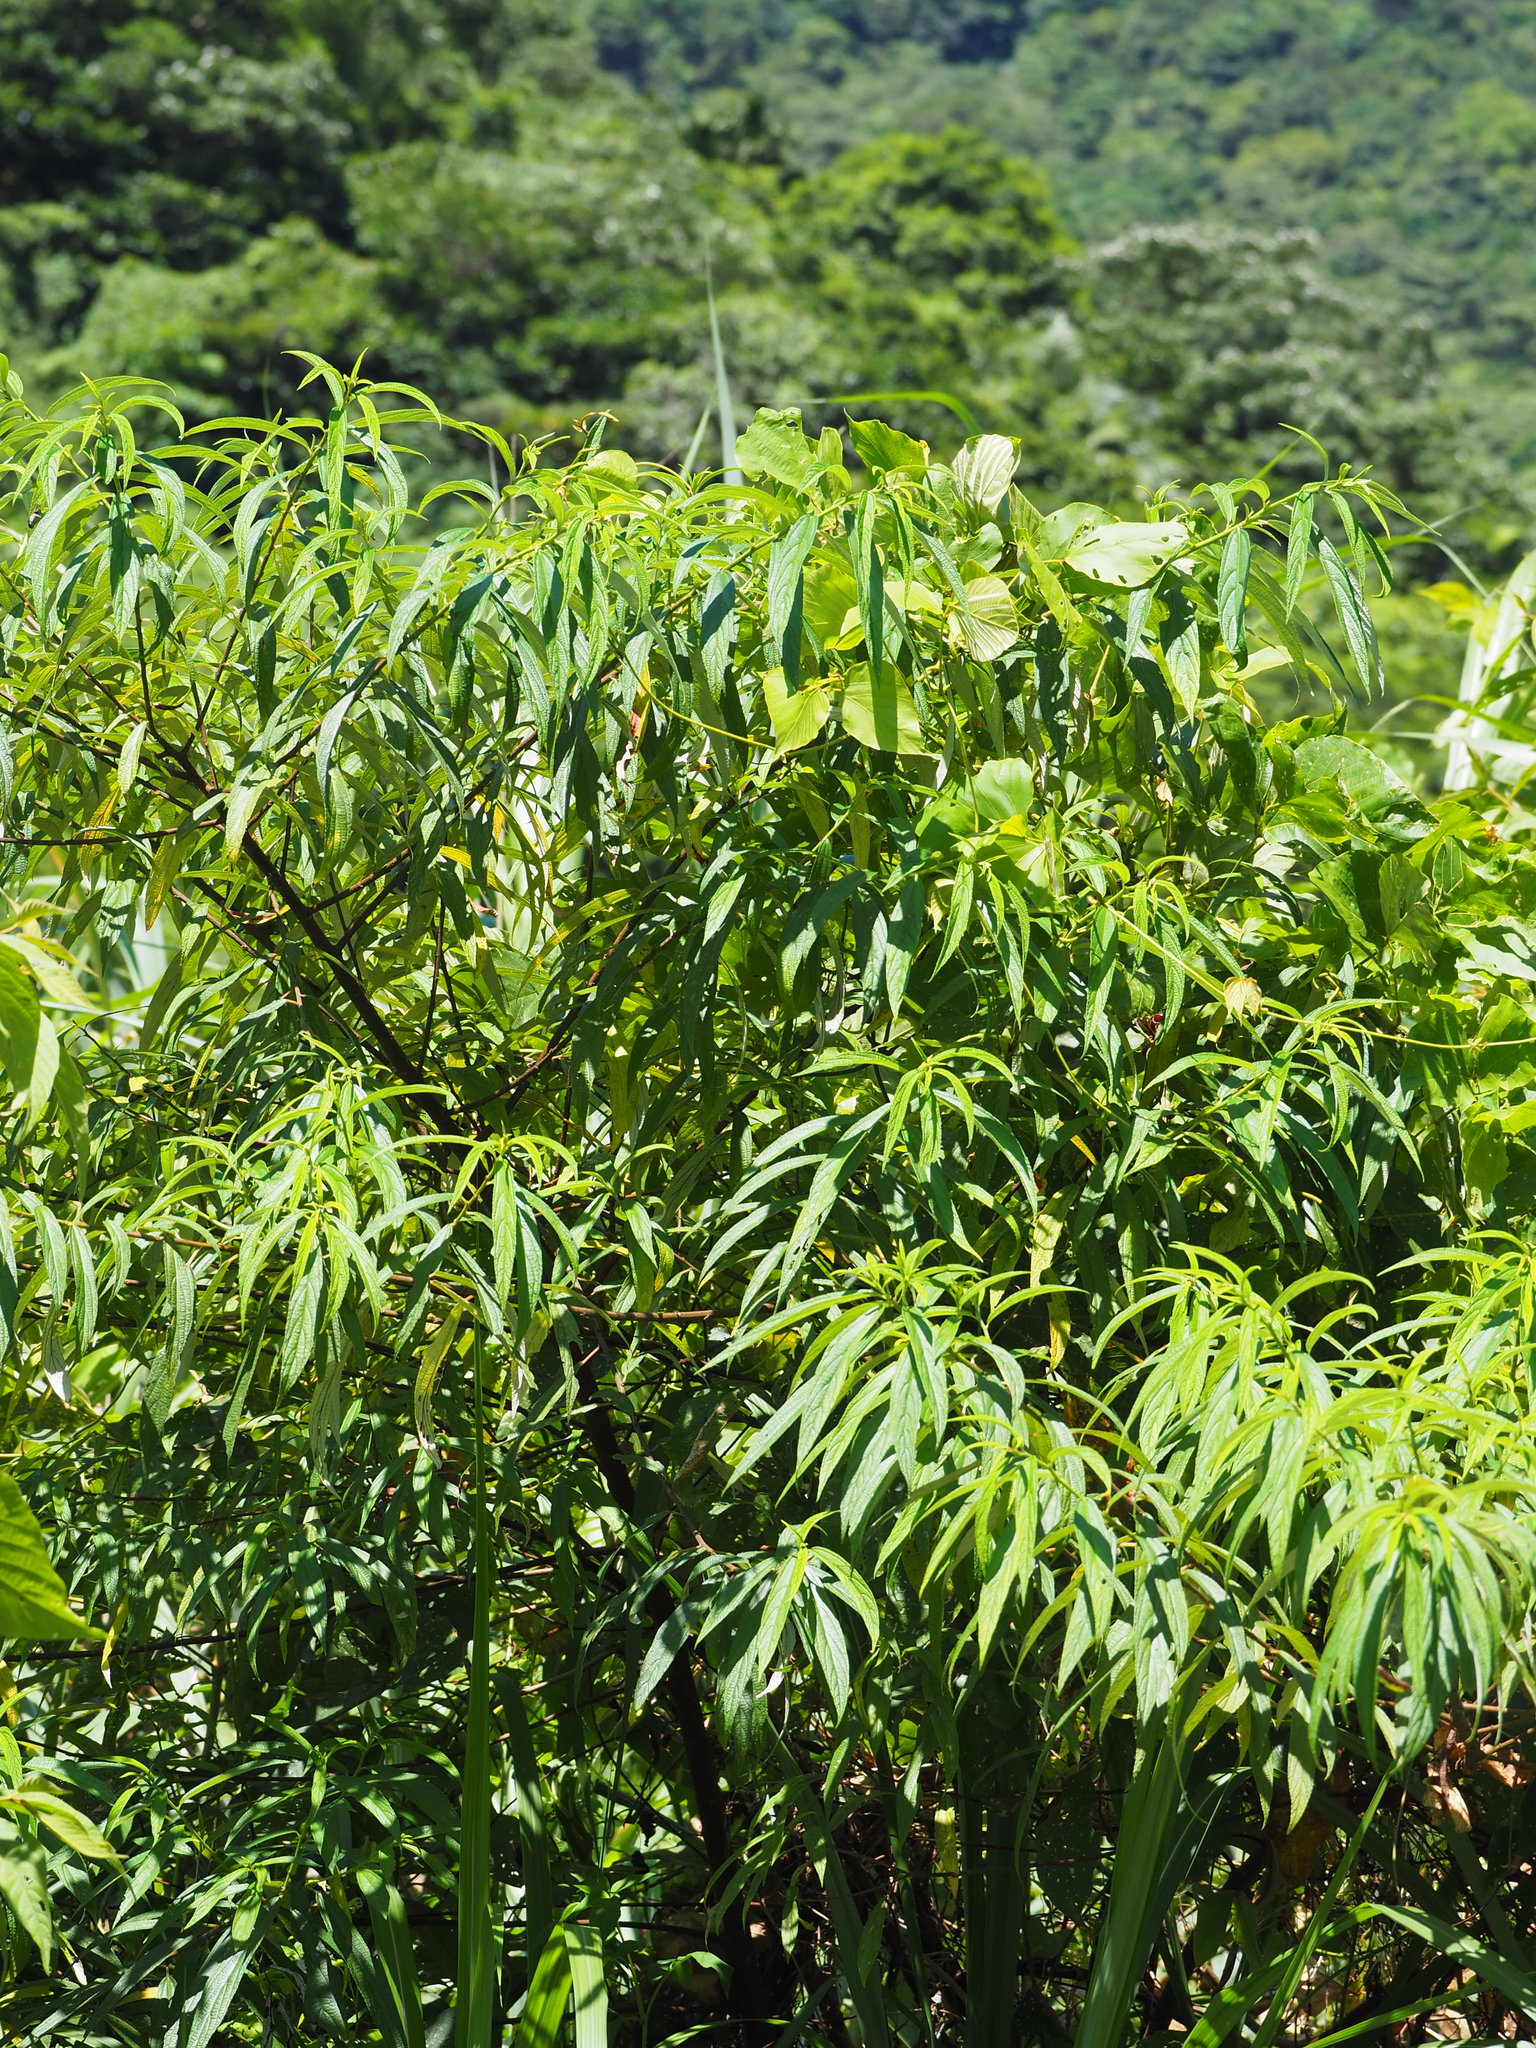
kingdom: Plantae
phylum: Tracheophyta
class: Magnoliopsida
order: Rosales
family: Urticaceae
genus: Boehmeria
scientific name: Boehmeria densiflora
